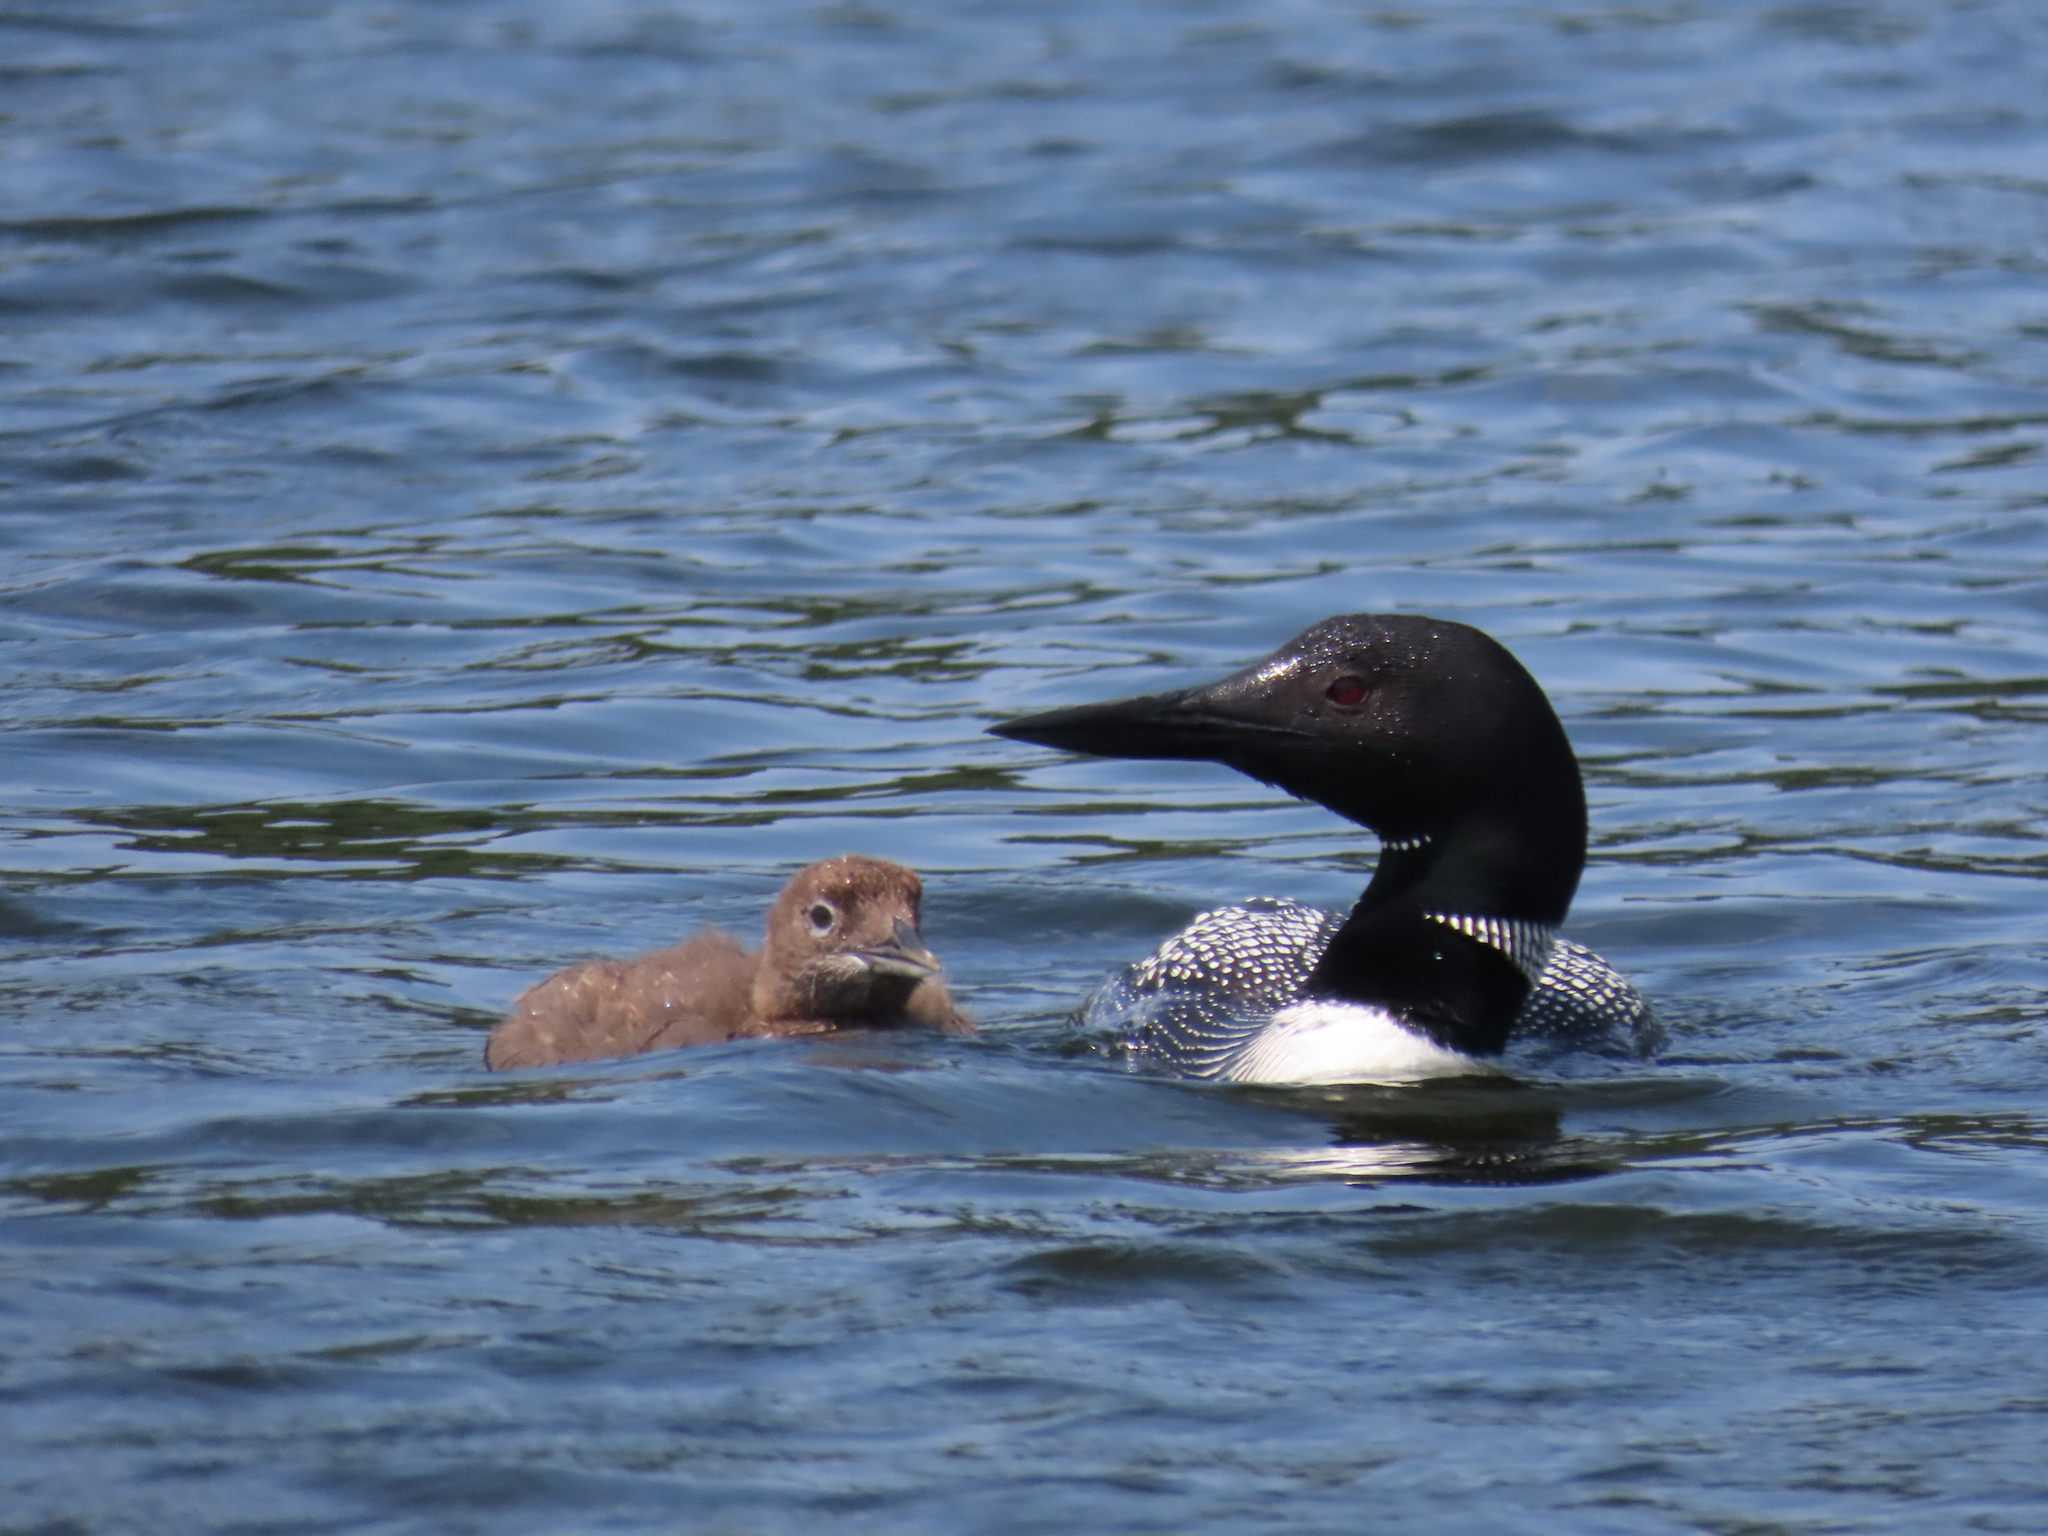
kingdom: Animalia
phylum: Chordata
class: Aves
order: Gaviiformes
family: Gaviidae
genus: Gavia
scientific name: Gavia immer
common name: Common loon
